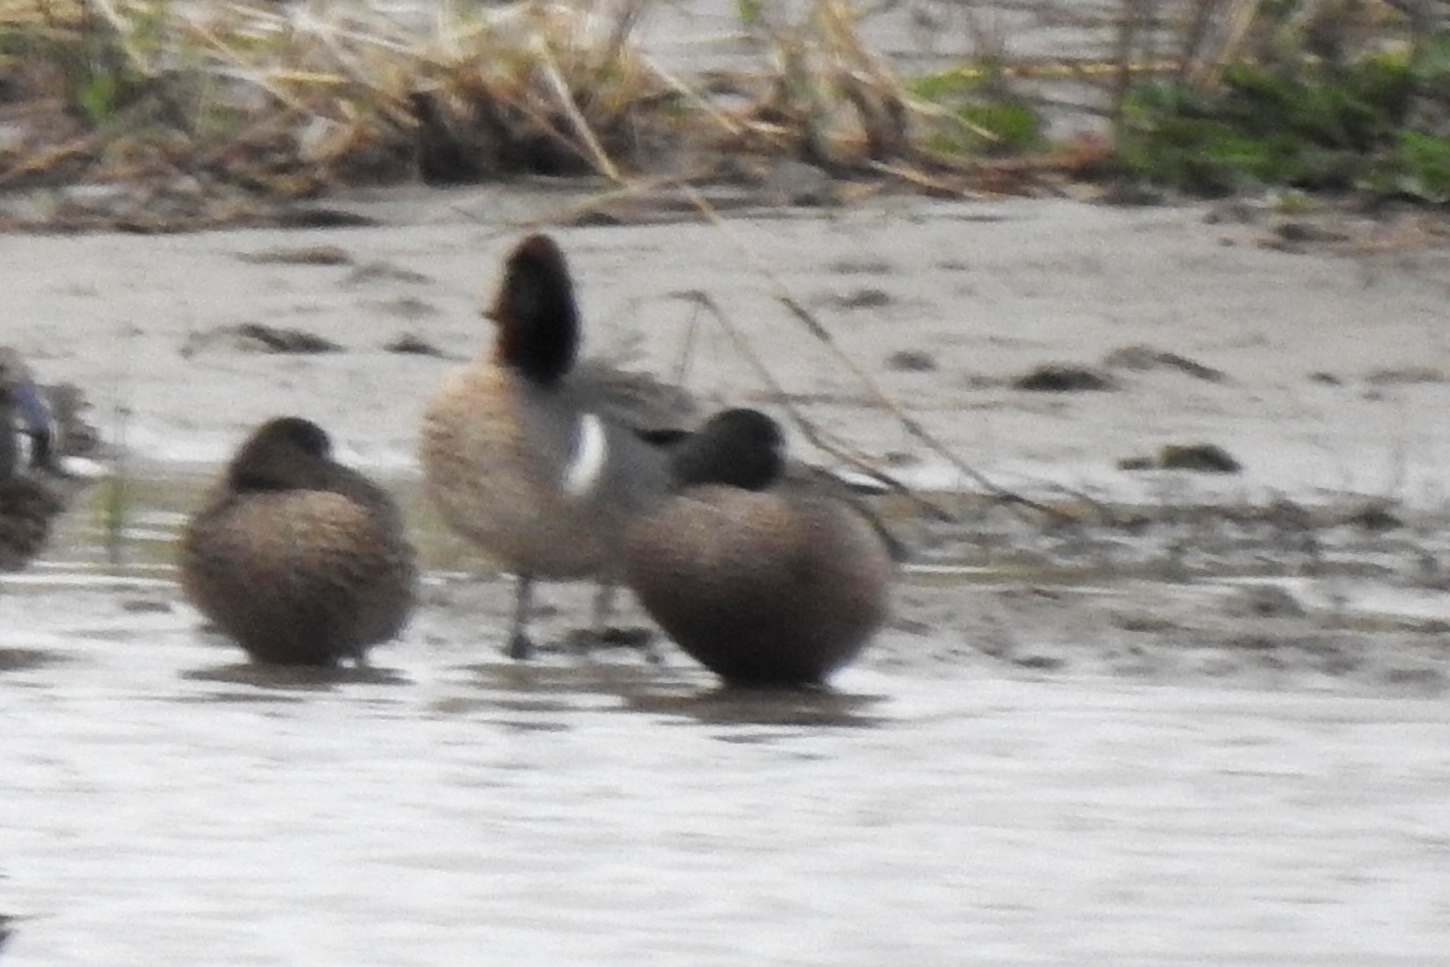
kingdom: Animalia
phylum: Chordata
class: Aves
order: Anseriformes
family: Anatidae
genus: Anas
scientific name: Anas crecca
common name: Eurasian teal
